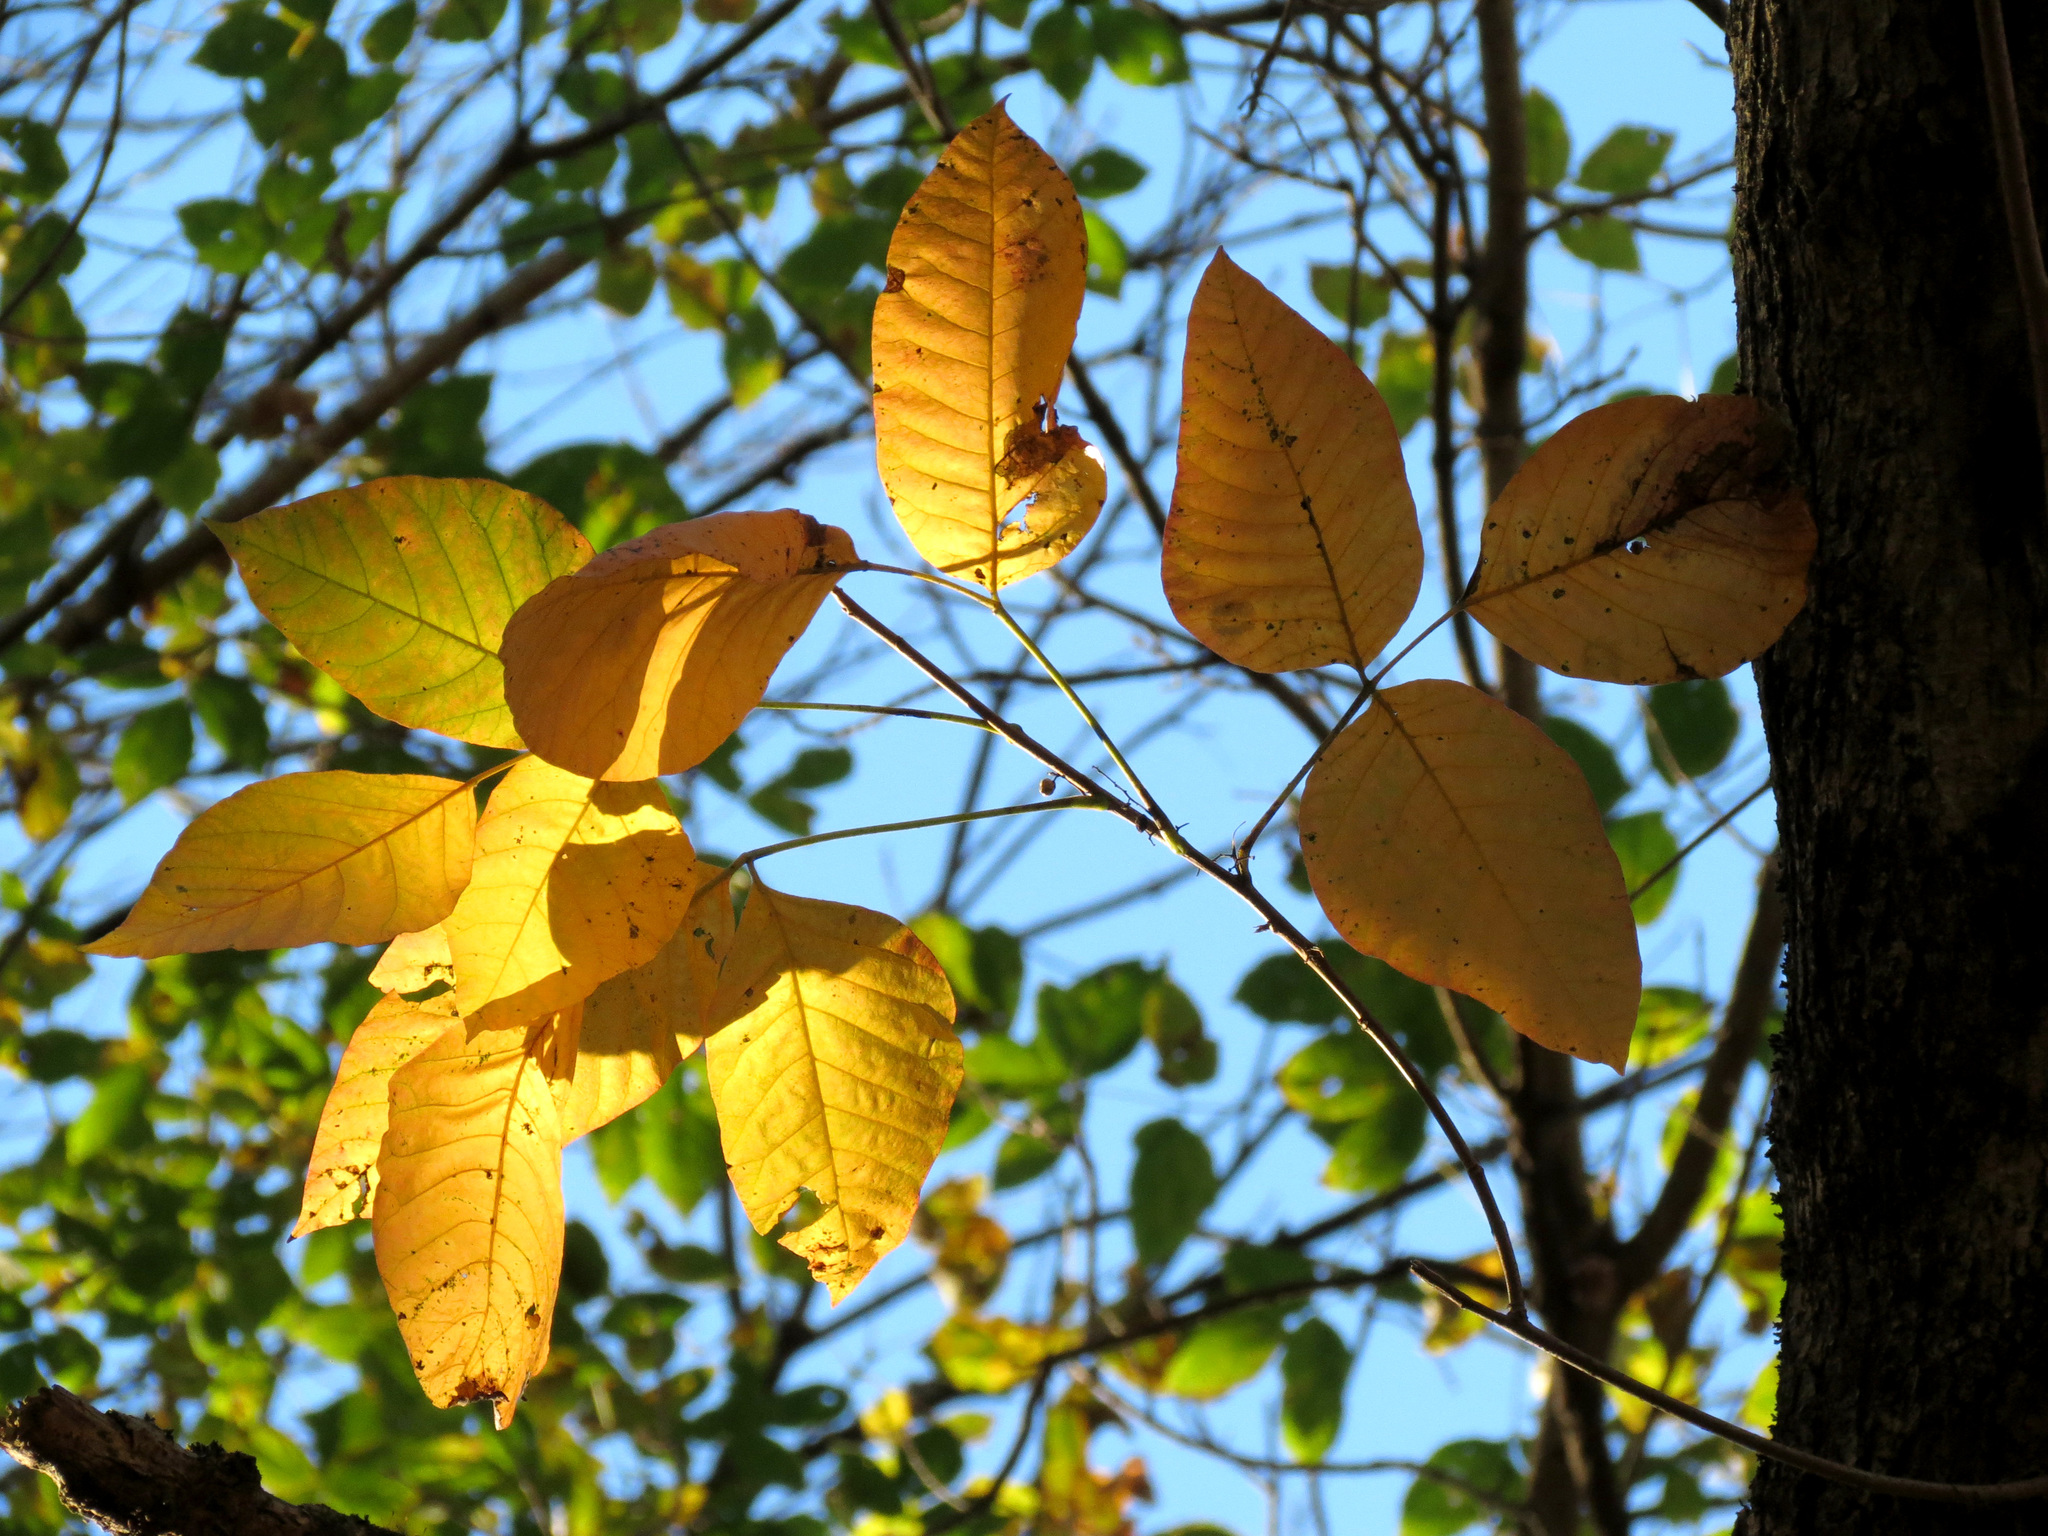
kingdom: Plantae
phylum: Tracheophyta
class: Magnoliopsida
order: Sapindales
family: Anacardiaceae
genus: Toxicodendron
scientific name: Toxicodendron radicans
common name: Poison ivy
